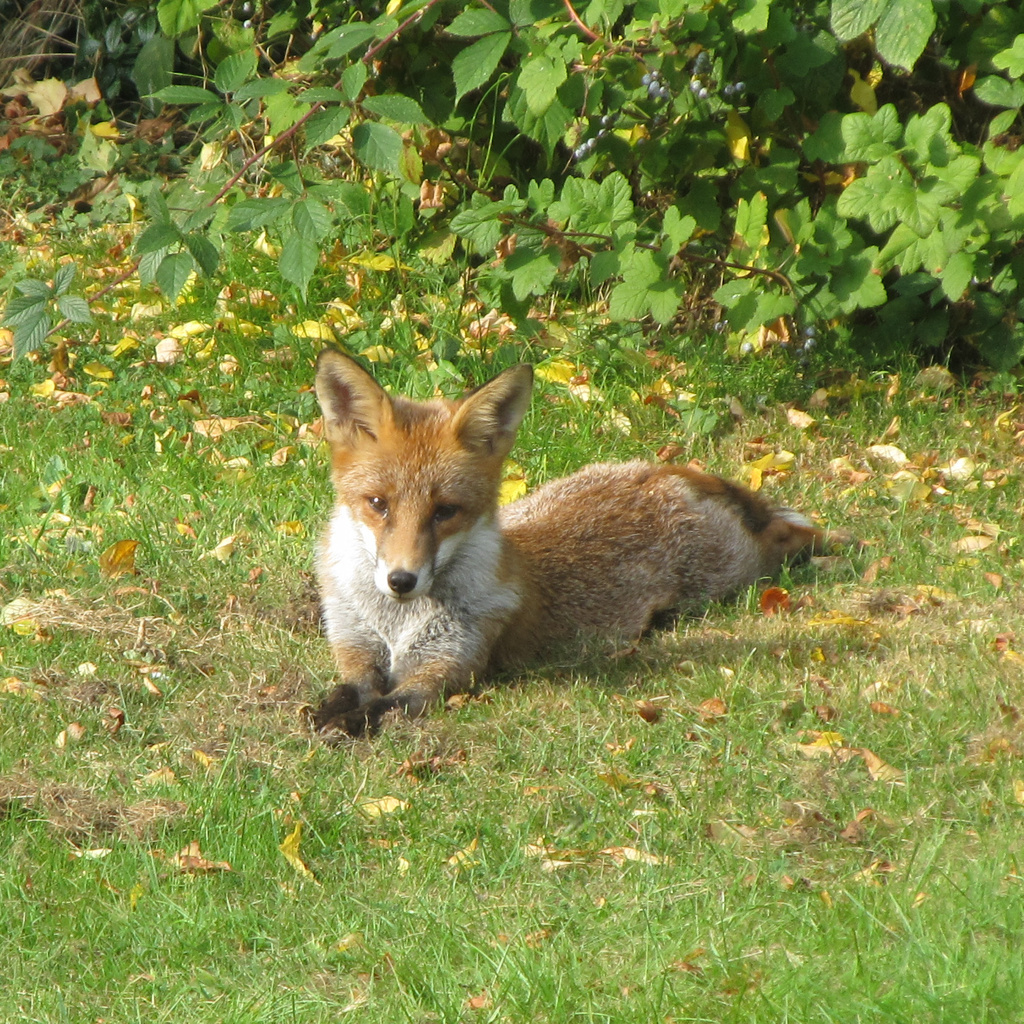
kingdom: Animalia
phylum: Chordata
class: Mammalia
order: Carnivora
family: Canidae
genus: Vulpes
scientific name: Vulpes vulpes
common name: Red fox
